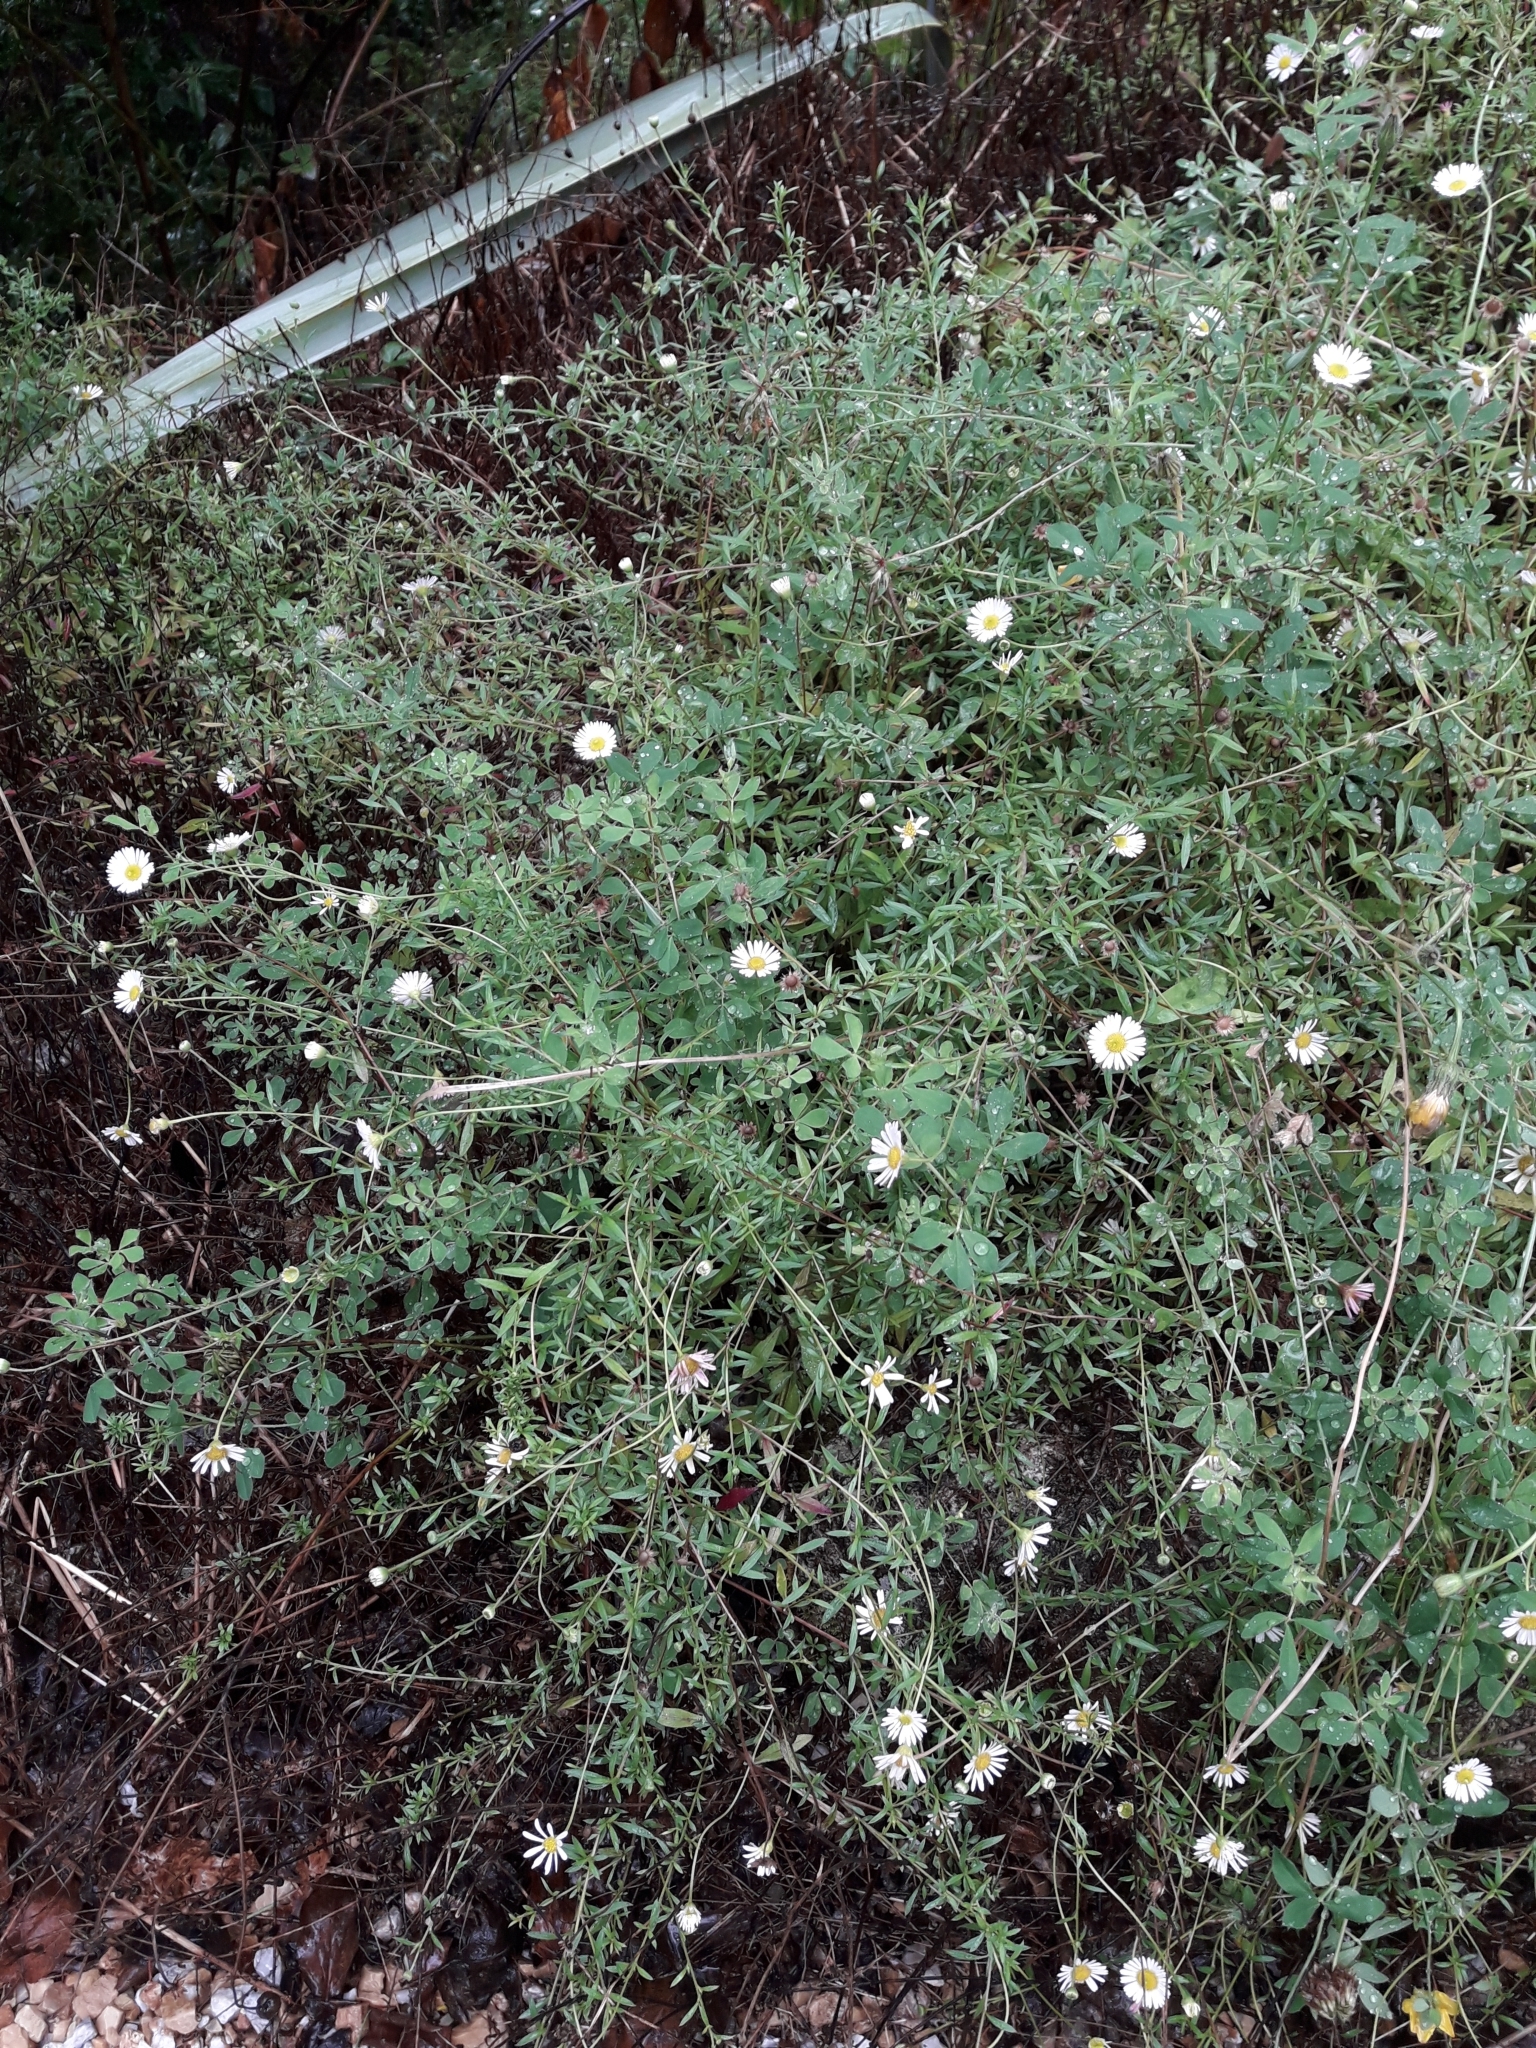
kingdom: Plantae
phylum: Tracheophyta
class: Magnoliopsida
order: Asterales
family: Asteraceae
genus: Erigeron
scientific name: Erigeron karvinskianus
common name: Mexican fleabane
